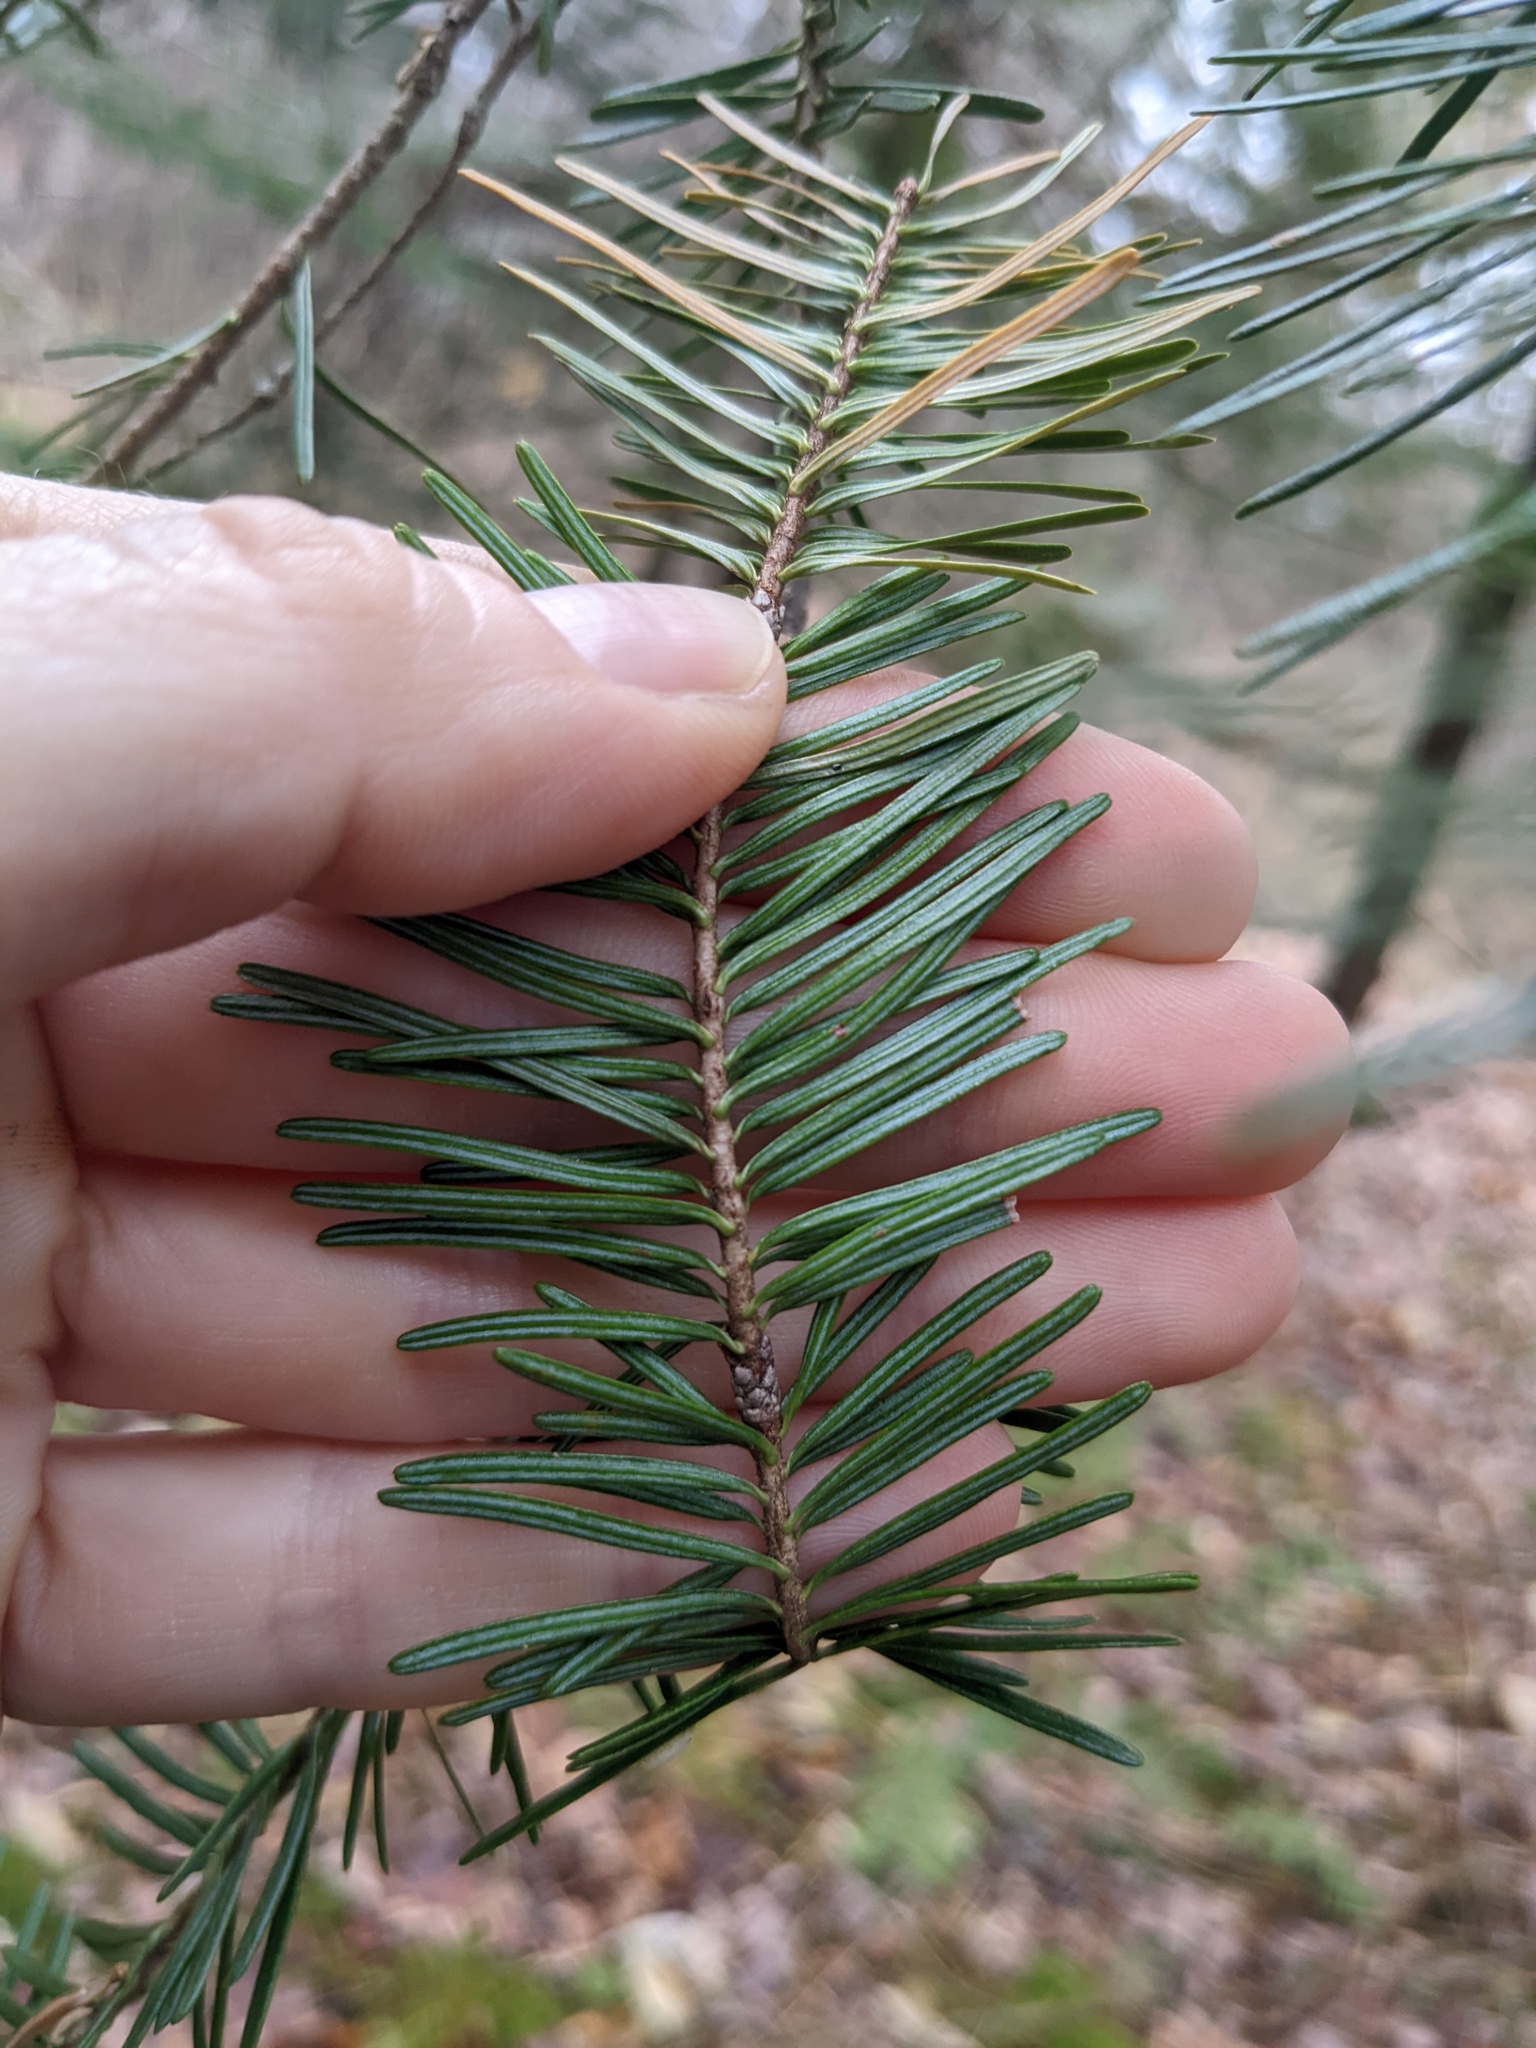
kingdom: Plantae
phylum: Tracheophyta
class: Pinopsida
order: Pinales
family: Pinaceae
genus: Abies
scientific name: Abies balsamea
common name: Balsam fir
